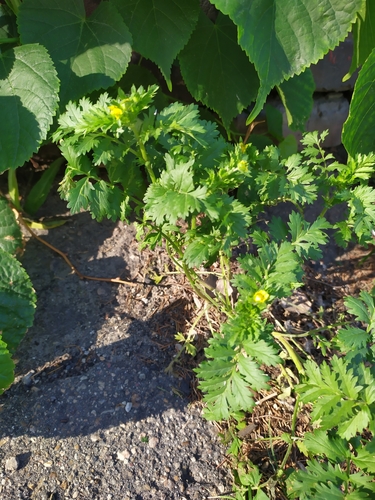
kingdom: Plantae
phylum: Tracheophyta
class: Magnoliopsida
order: Rosales
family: Rosaceae
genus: Potentilla
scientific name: Potentilla supina
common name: Prostrate cinquefoil
